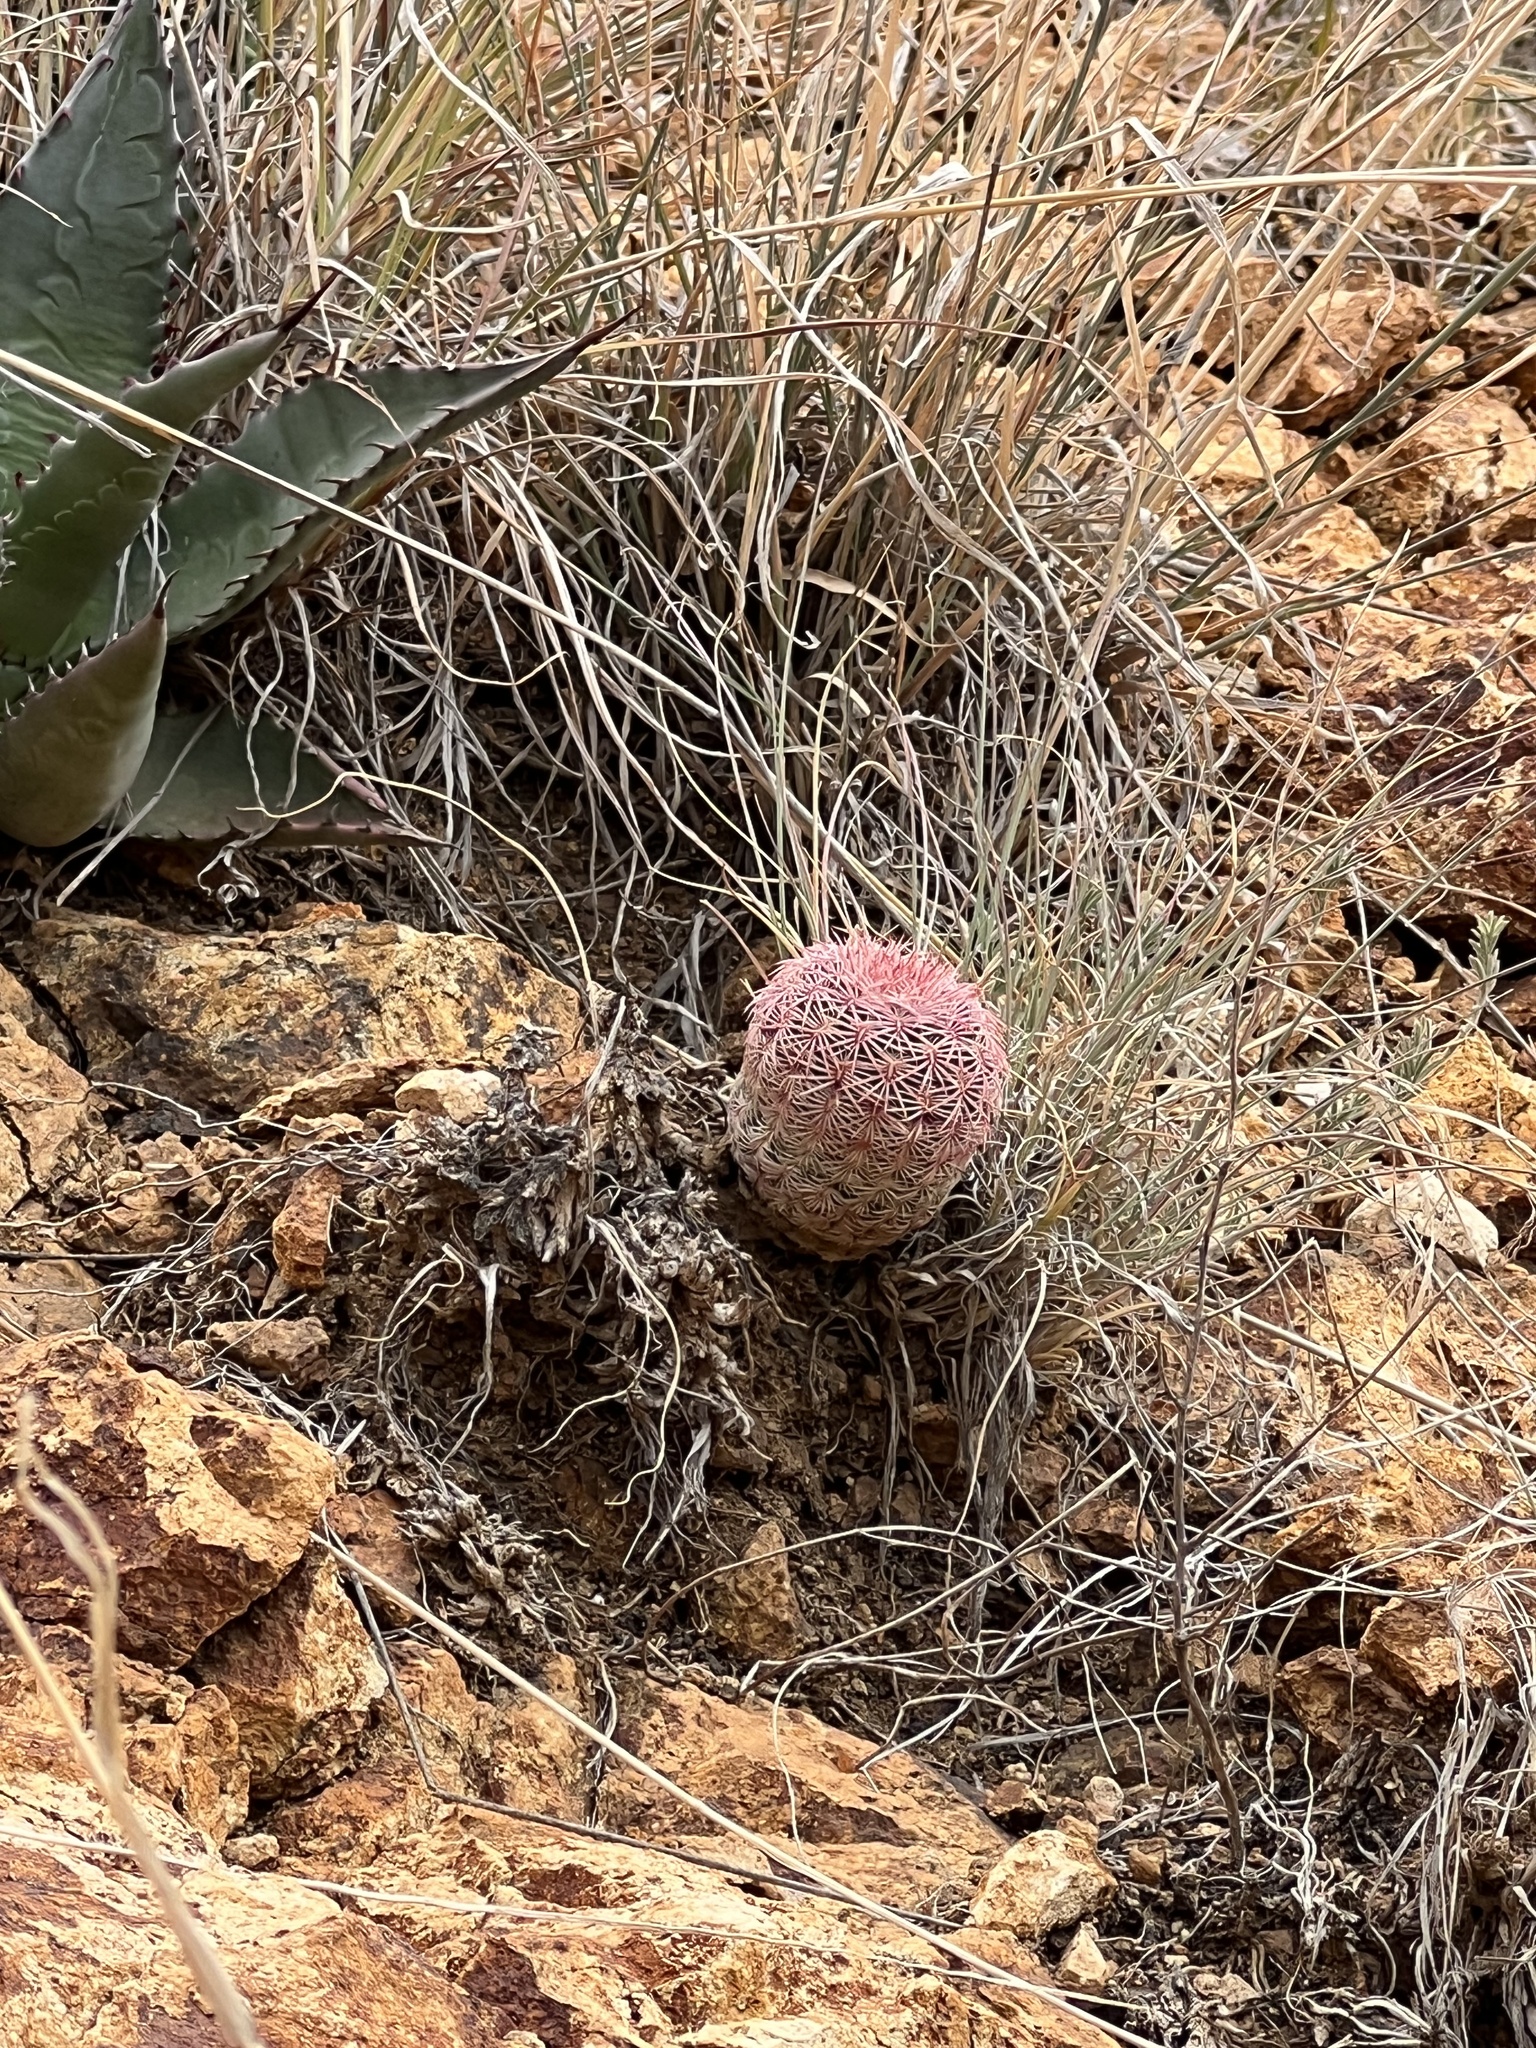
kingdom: Plantae
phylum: Tracheophyta
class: Magnoliopsida
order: Caryophyllales
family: Cactaceae
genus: Echinocereus
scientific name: Echinocereus rigidissimus
